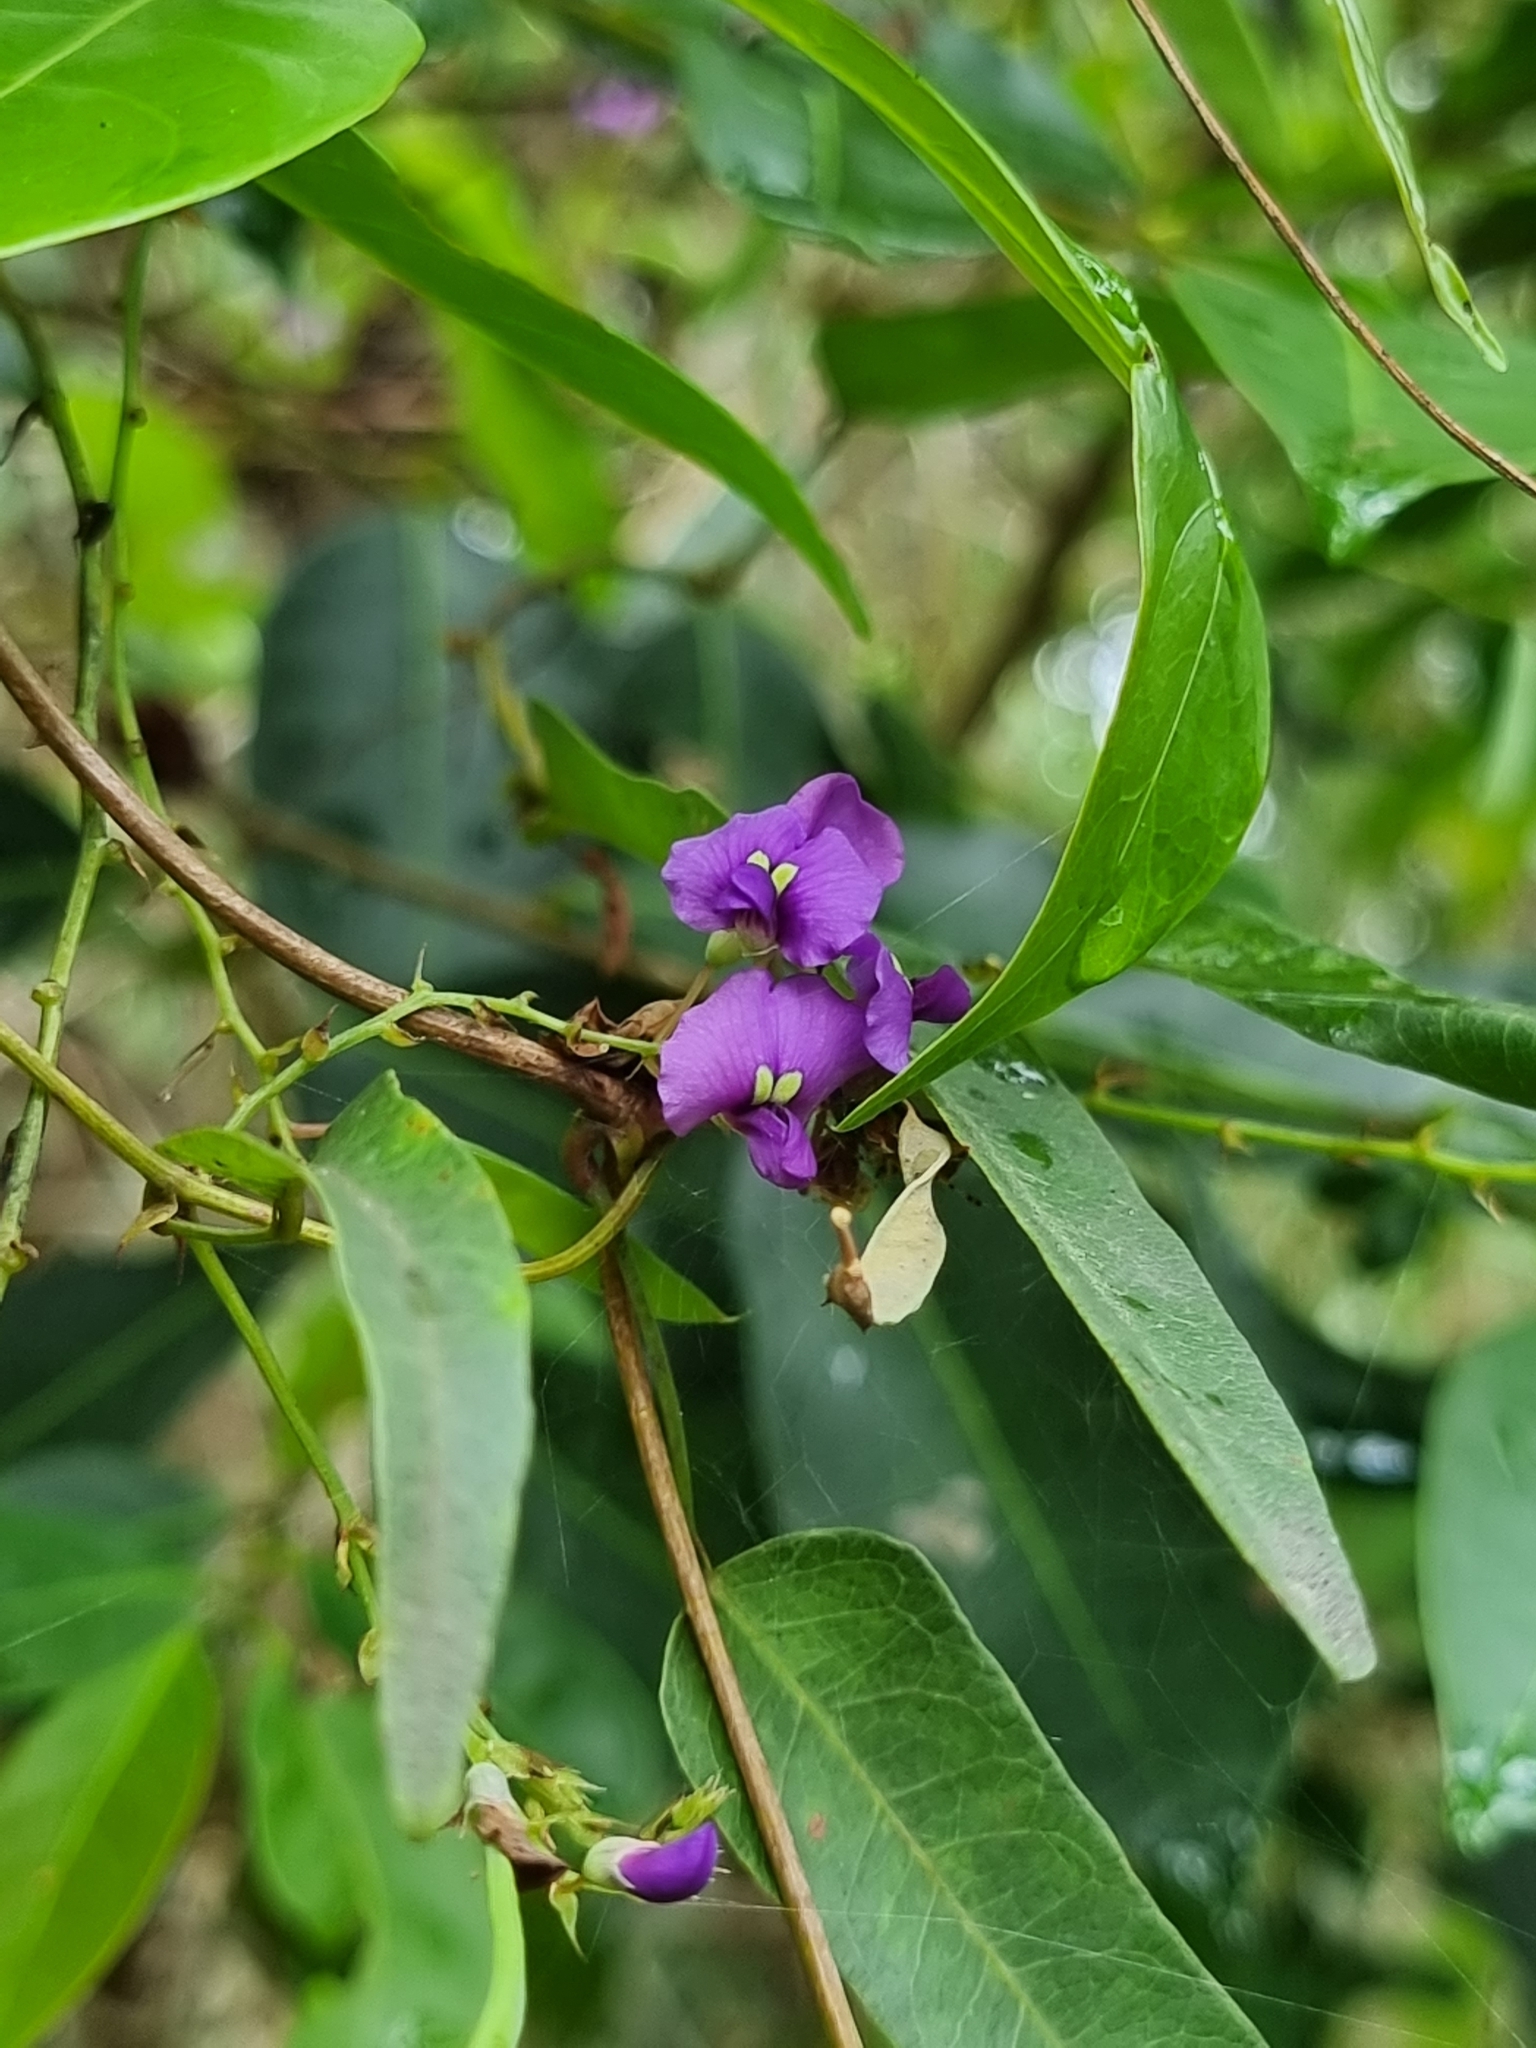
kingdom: Plantae
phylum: Tracheophyta
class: Magnoliopsida
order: Fabales
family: Fabaceae
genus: Hardenbergia
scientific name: Hardenbergia violacea
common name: Coral-pea
